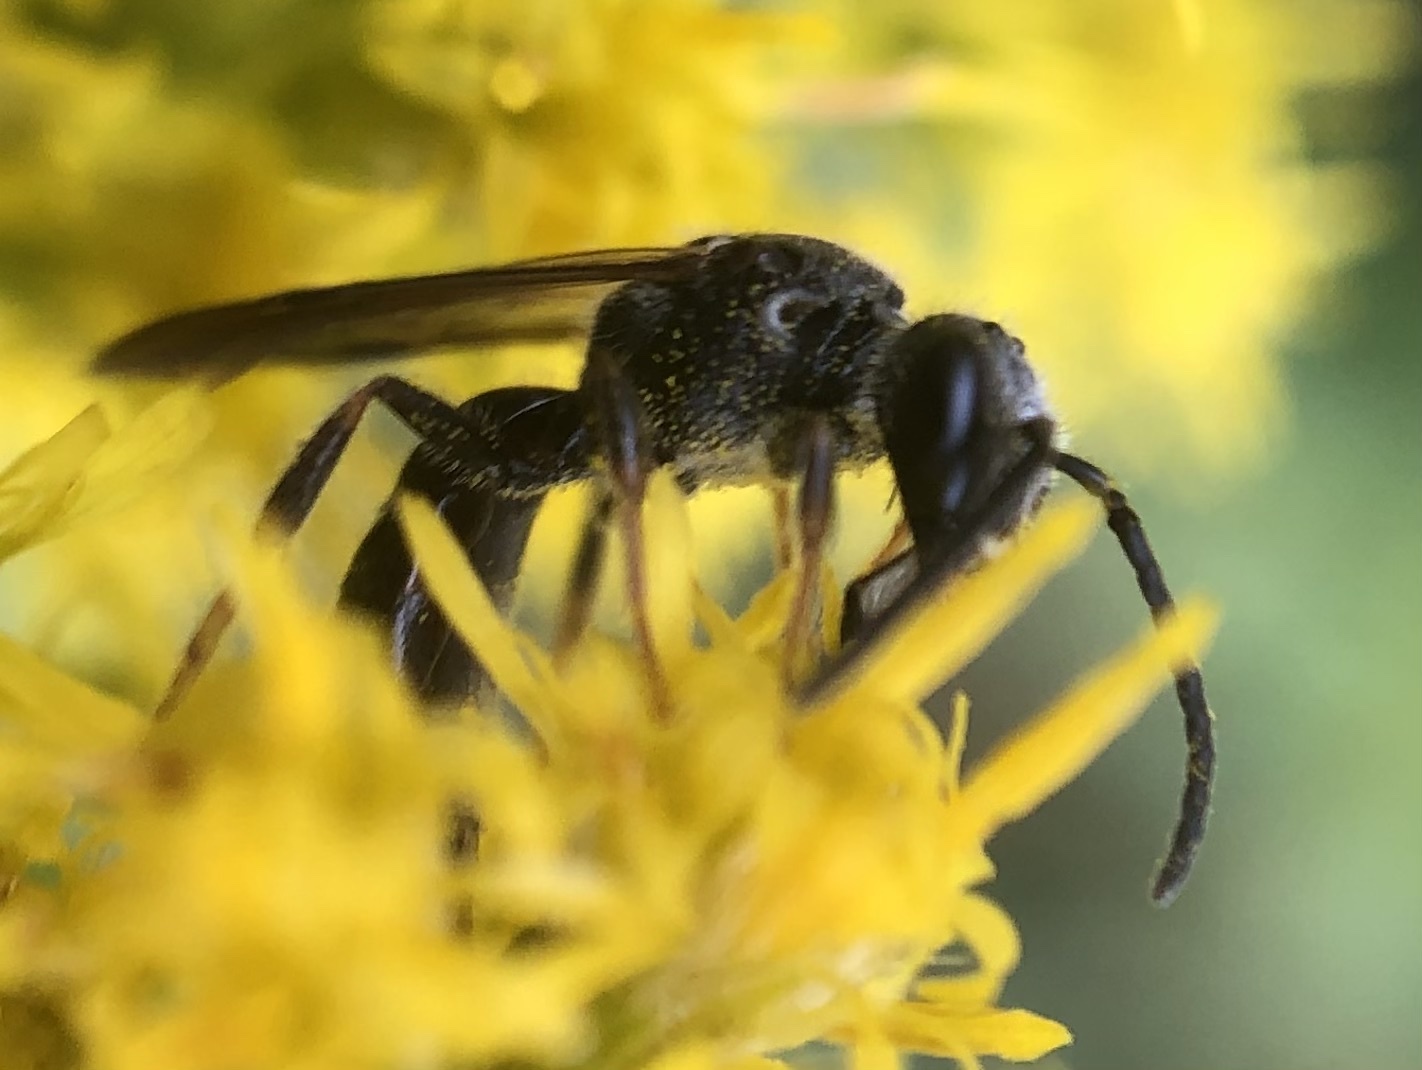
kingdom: Animalia
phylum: Arthropoda
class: Insecta
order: Hymenoptera
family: Halictidae
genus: Lasioglossum
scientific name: Lasioglossum fuscipenne
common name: Brown-winged sweat bee
